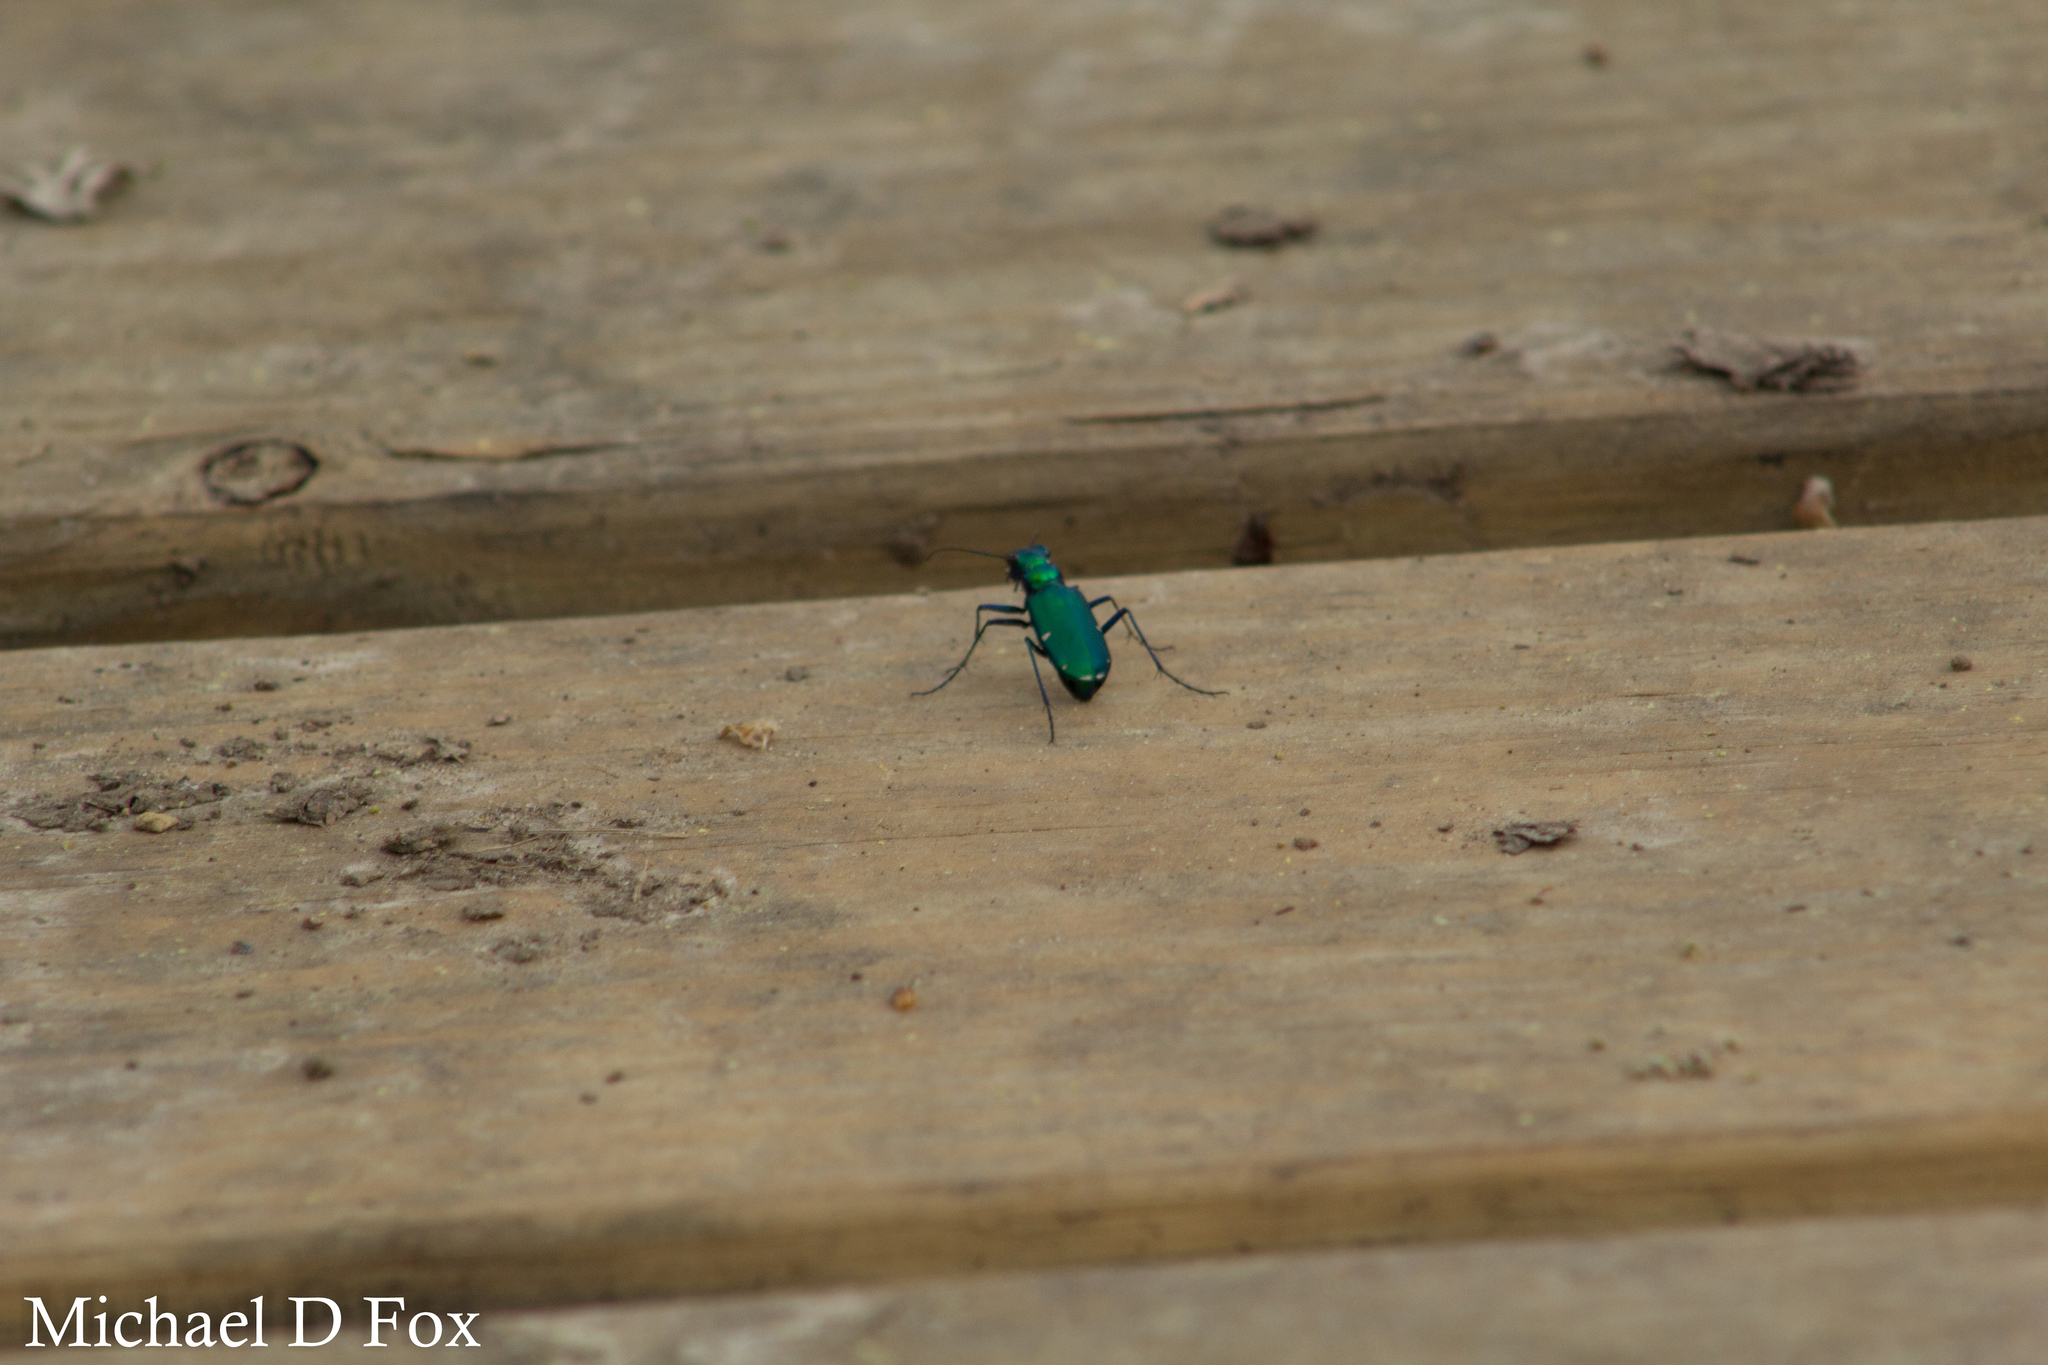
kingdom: Animalia
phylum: Arthropoda
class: Insecta
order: Coleoptera
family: Carabidae
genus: Cicindela
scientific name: Cicindela sexguttata
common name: Six-spotted tiger beetle
